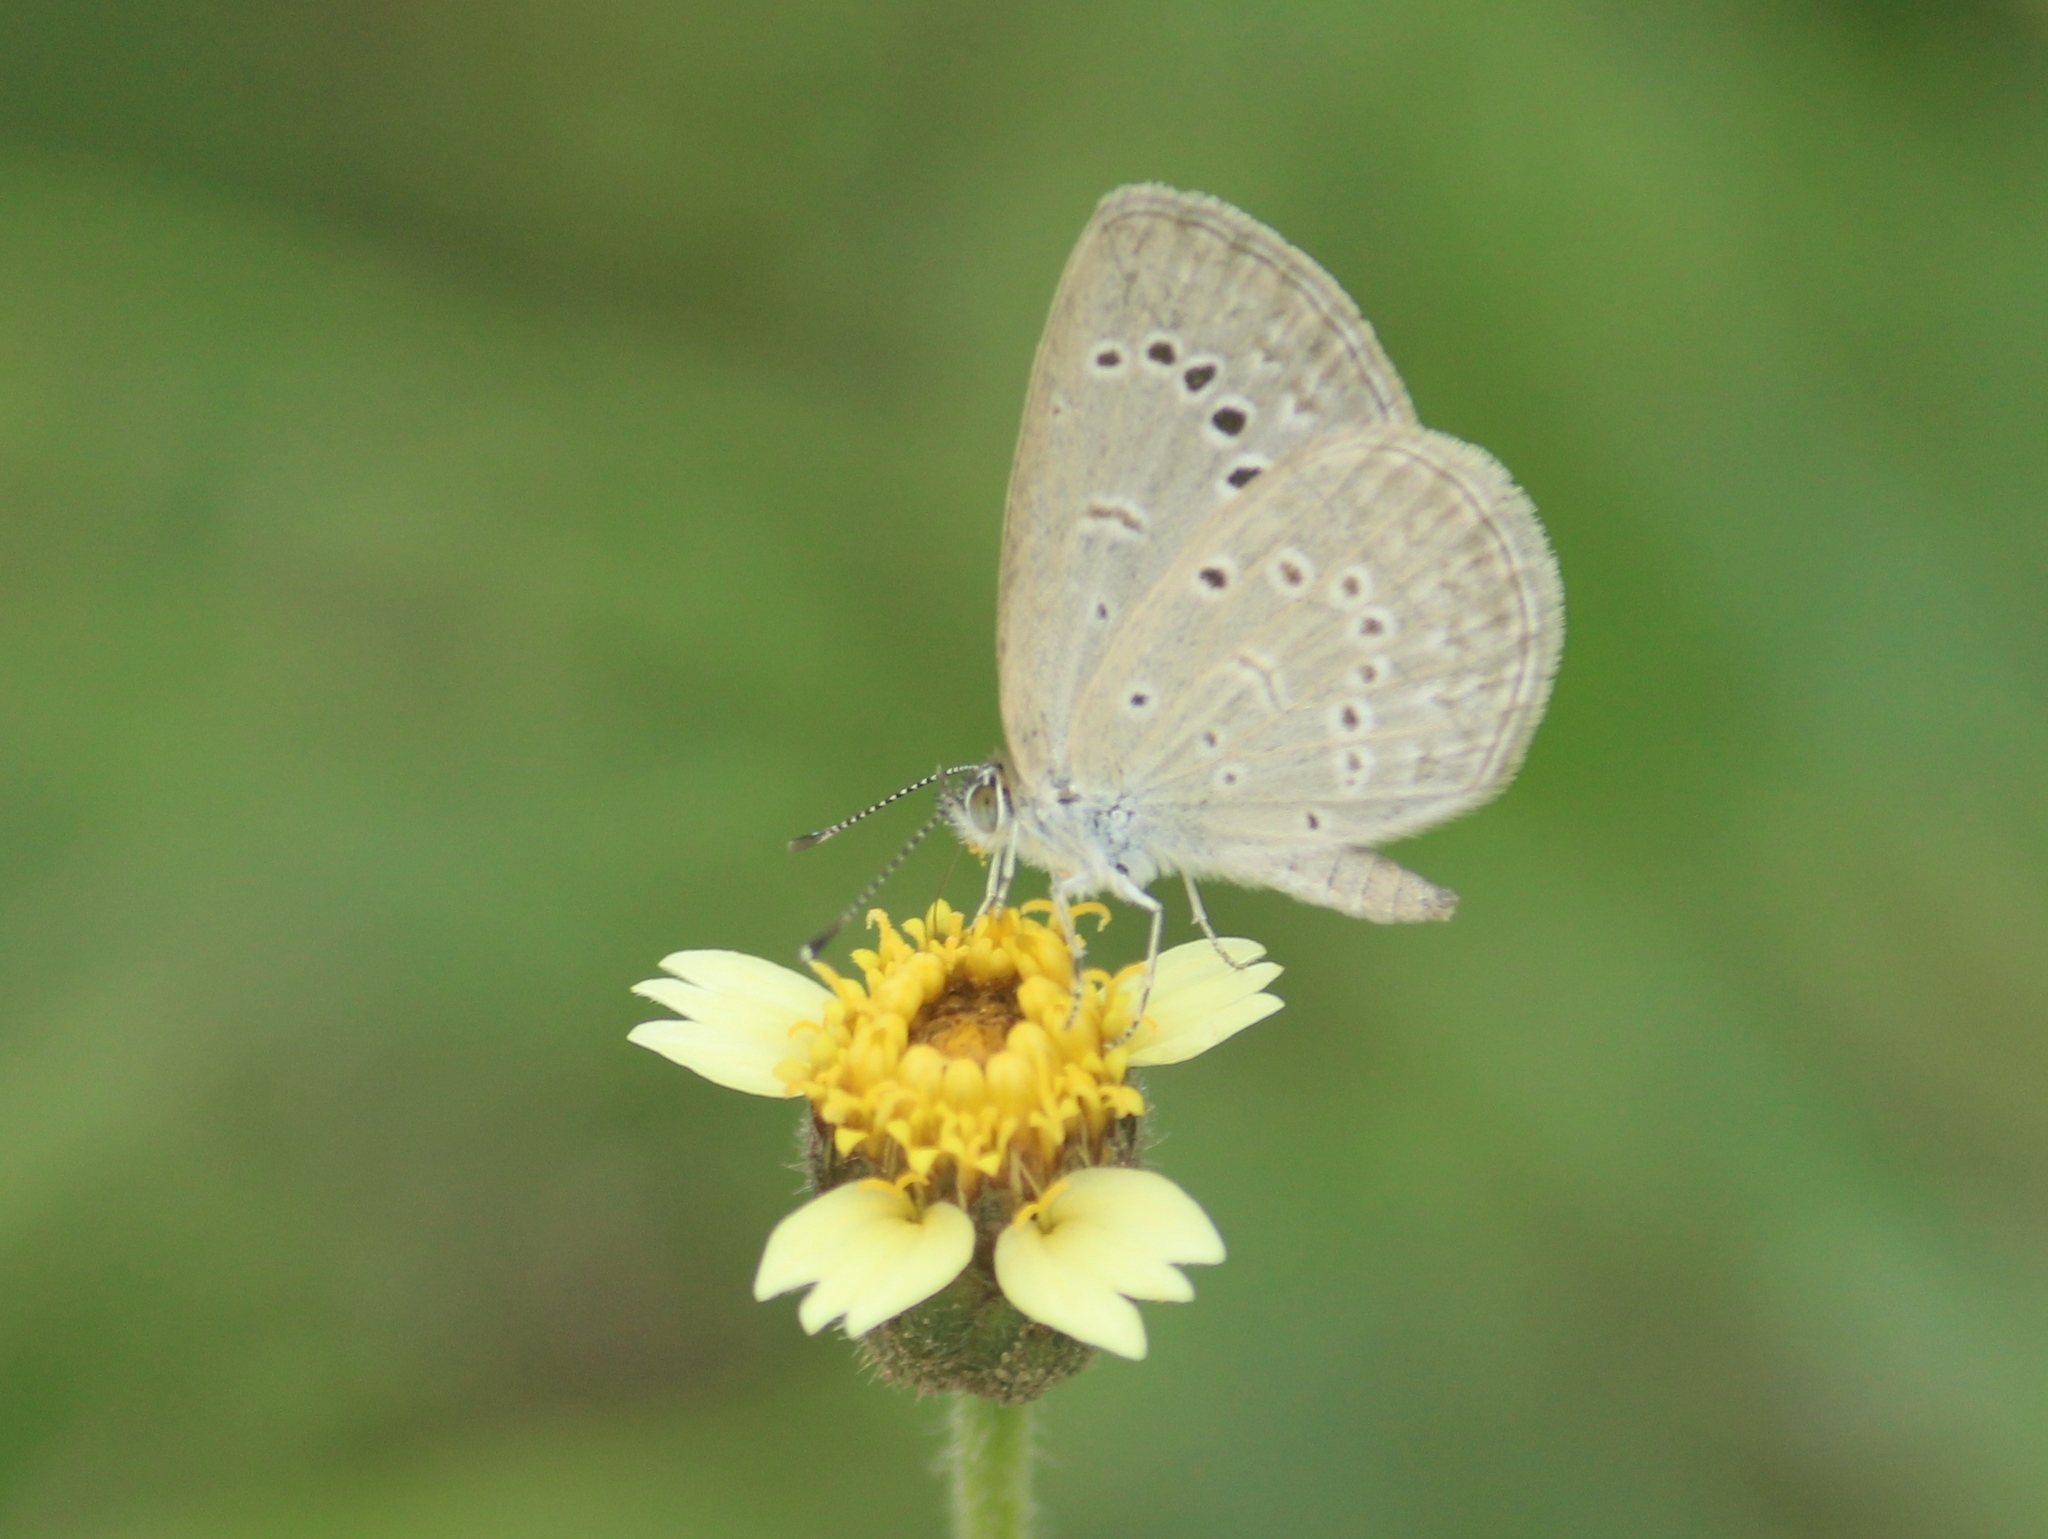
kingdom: Animalia
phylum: Arthropoda
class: Insecta
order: Lepidoptera
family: Lycaenidae
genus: Pseudozizeeria
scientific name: Pseudozizeeria maha
